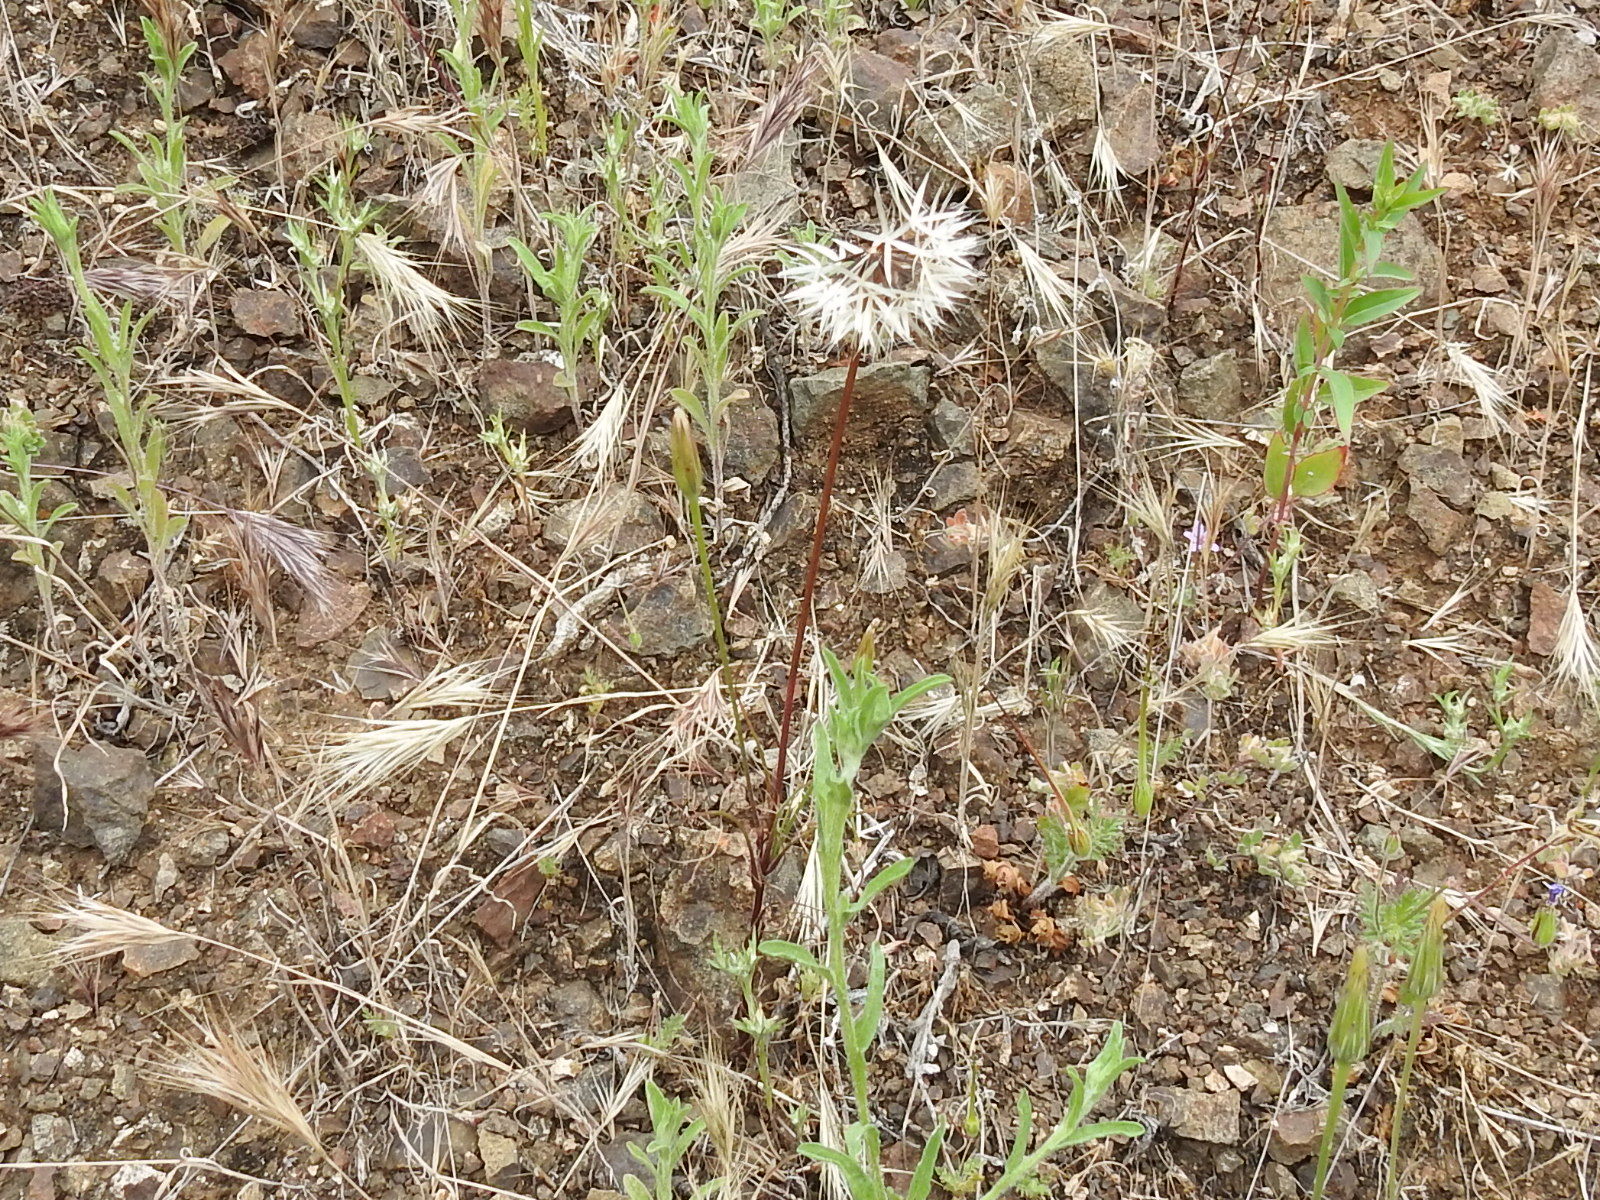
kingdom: Plantae
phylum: Tracheophyta
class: Magnoliopsida
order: Asterales
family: Asteraceae
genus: Microseris
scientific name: Microseris lindleyi
